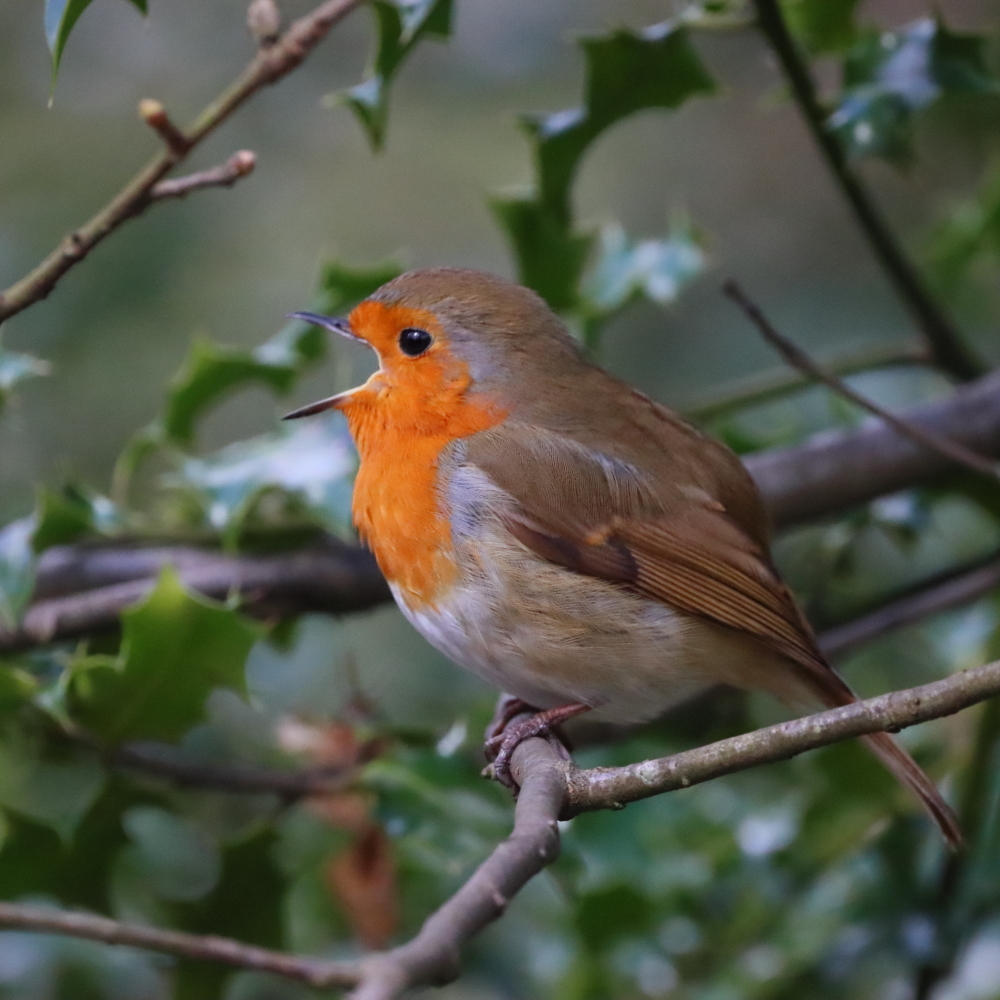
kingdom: Animalia
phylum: Chordata
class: Aves
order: Passeriformes
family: Muscicapidae
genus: Erithacus
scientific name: Erithacus rubecula
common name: European robin
